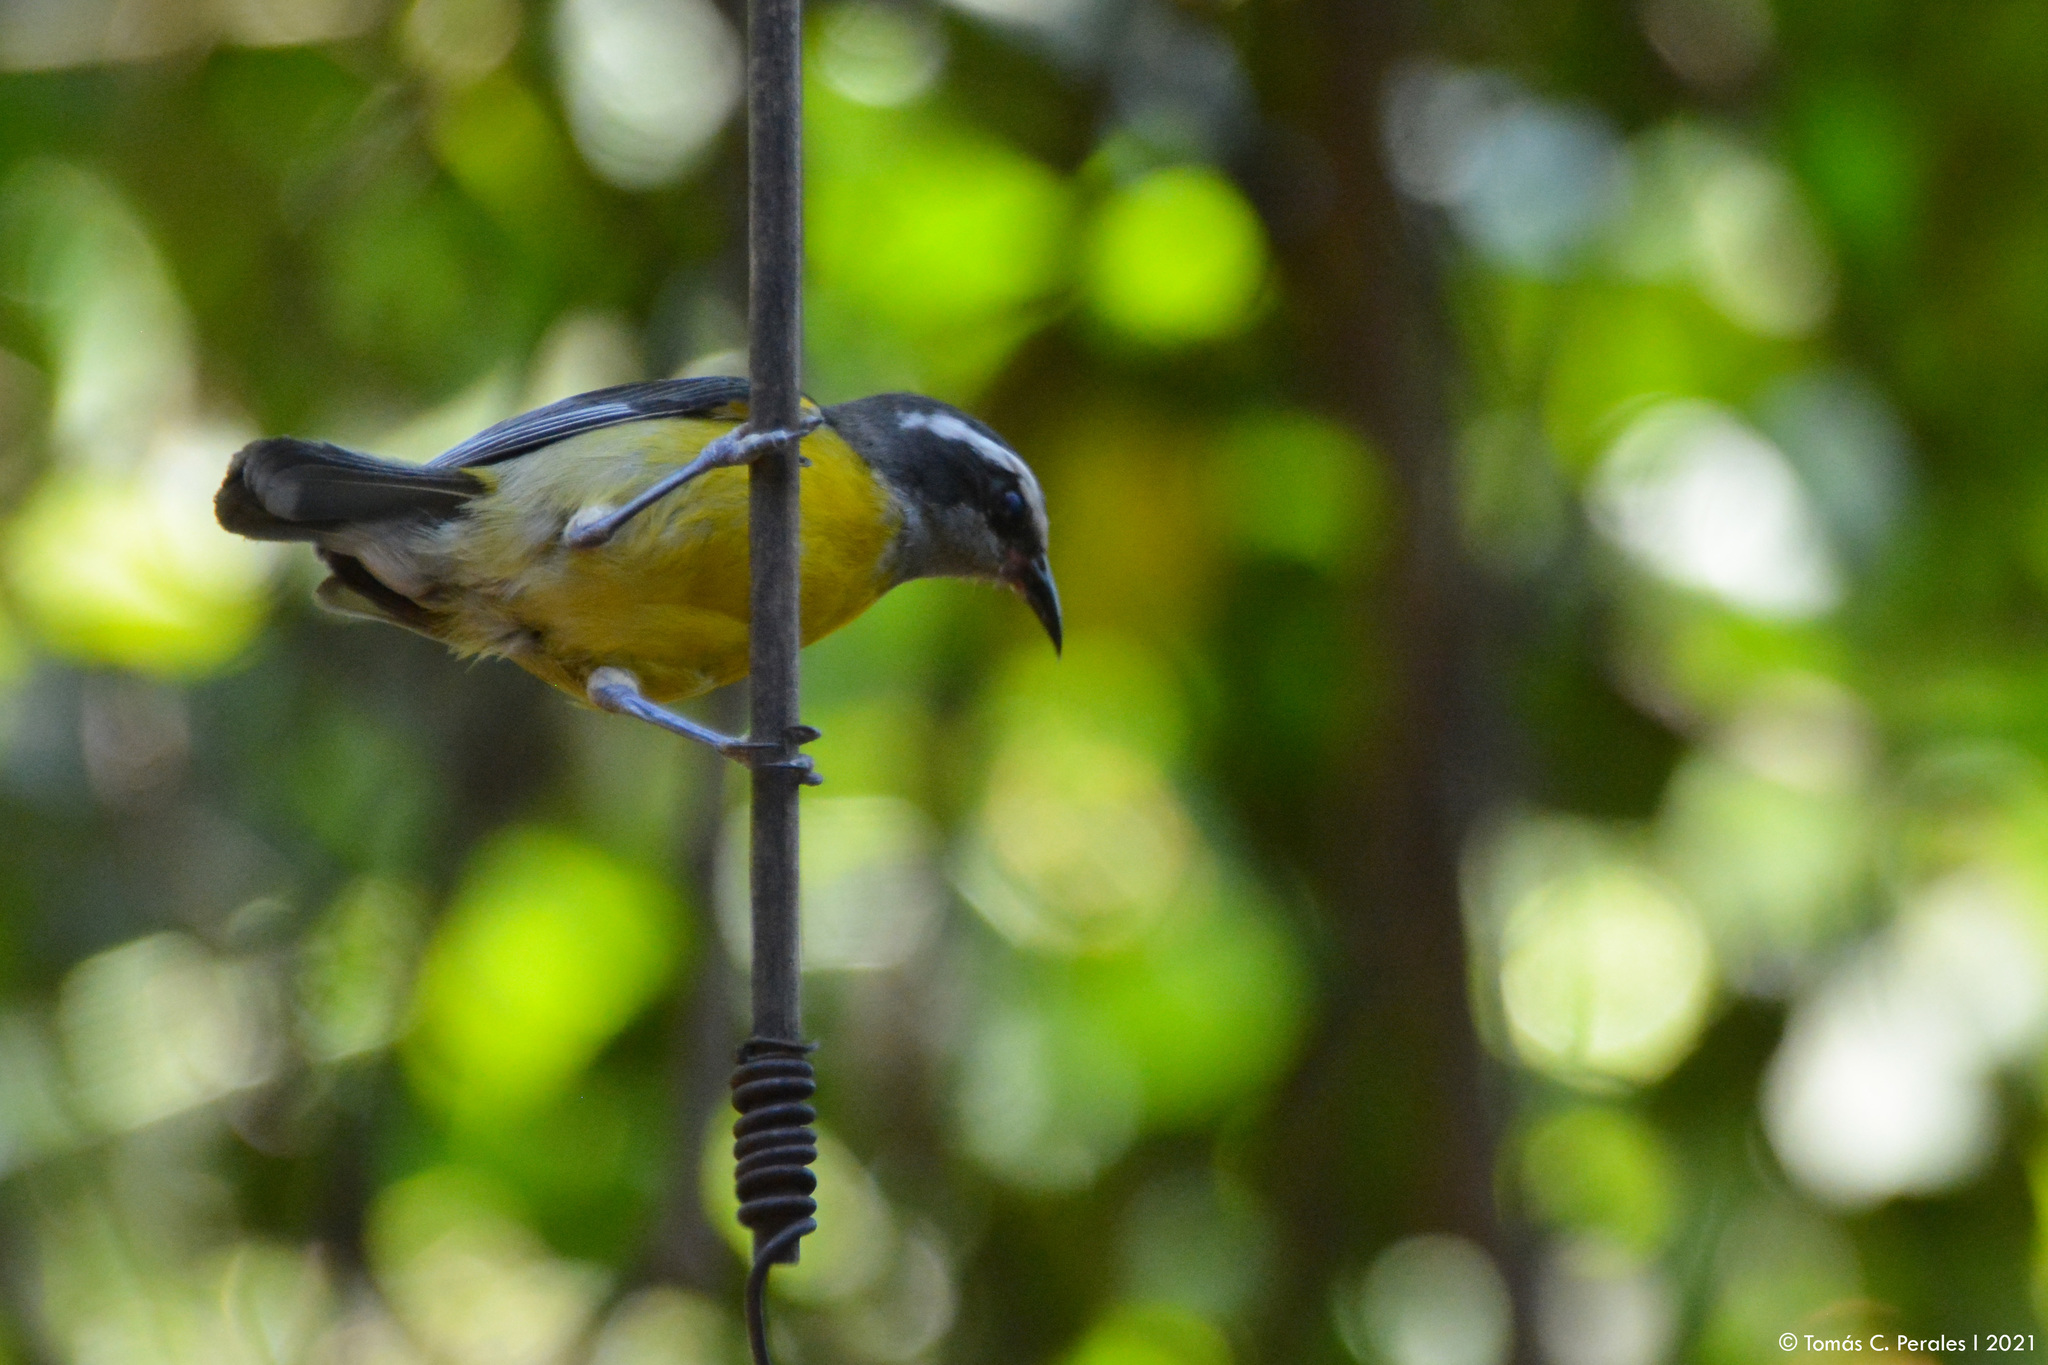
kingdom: Animalia
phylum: Chordata
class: Aves
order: Passeriformes
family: Thraupidae
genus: Coereba
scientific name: Coereba flaveola
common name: Bananaquit
